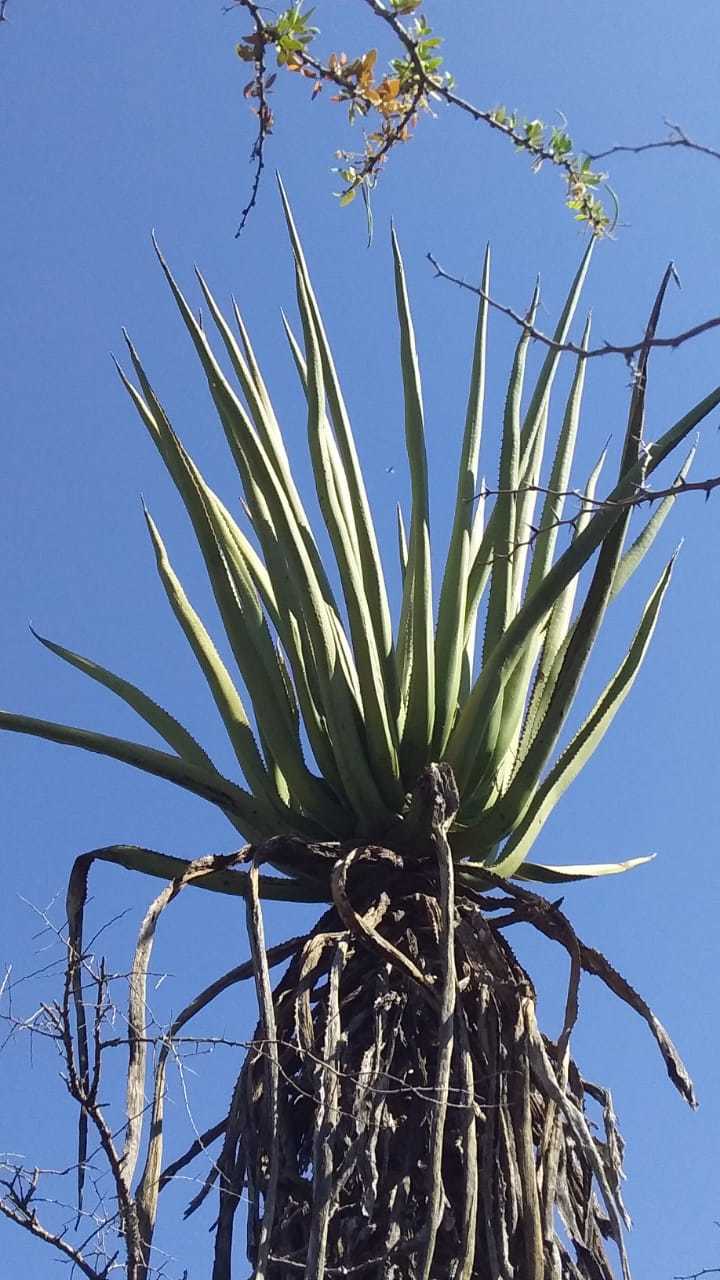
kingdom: Plantae
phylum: Tracheophyta
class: Liliopsida
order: Asparagales
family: Asparagaceae
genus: Furcraea
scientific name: Furcraea macdougallii
